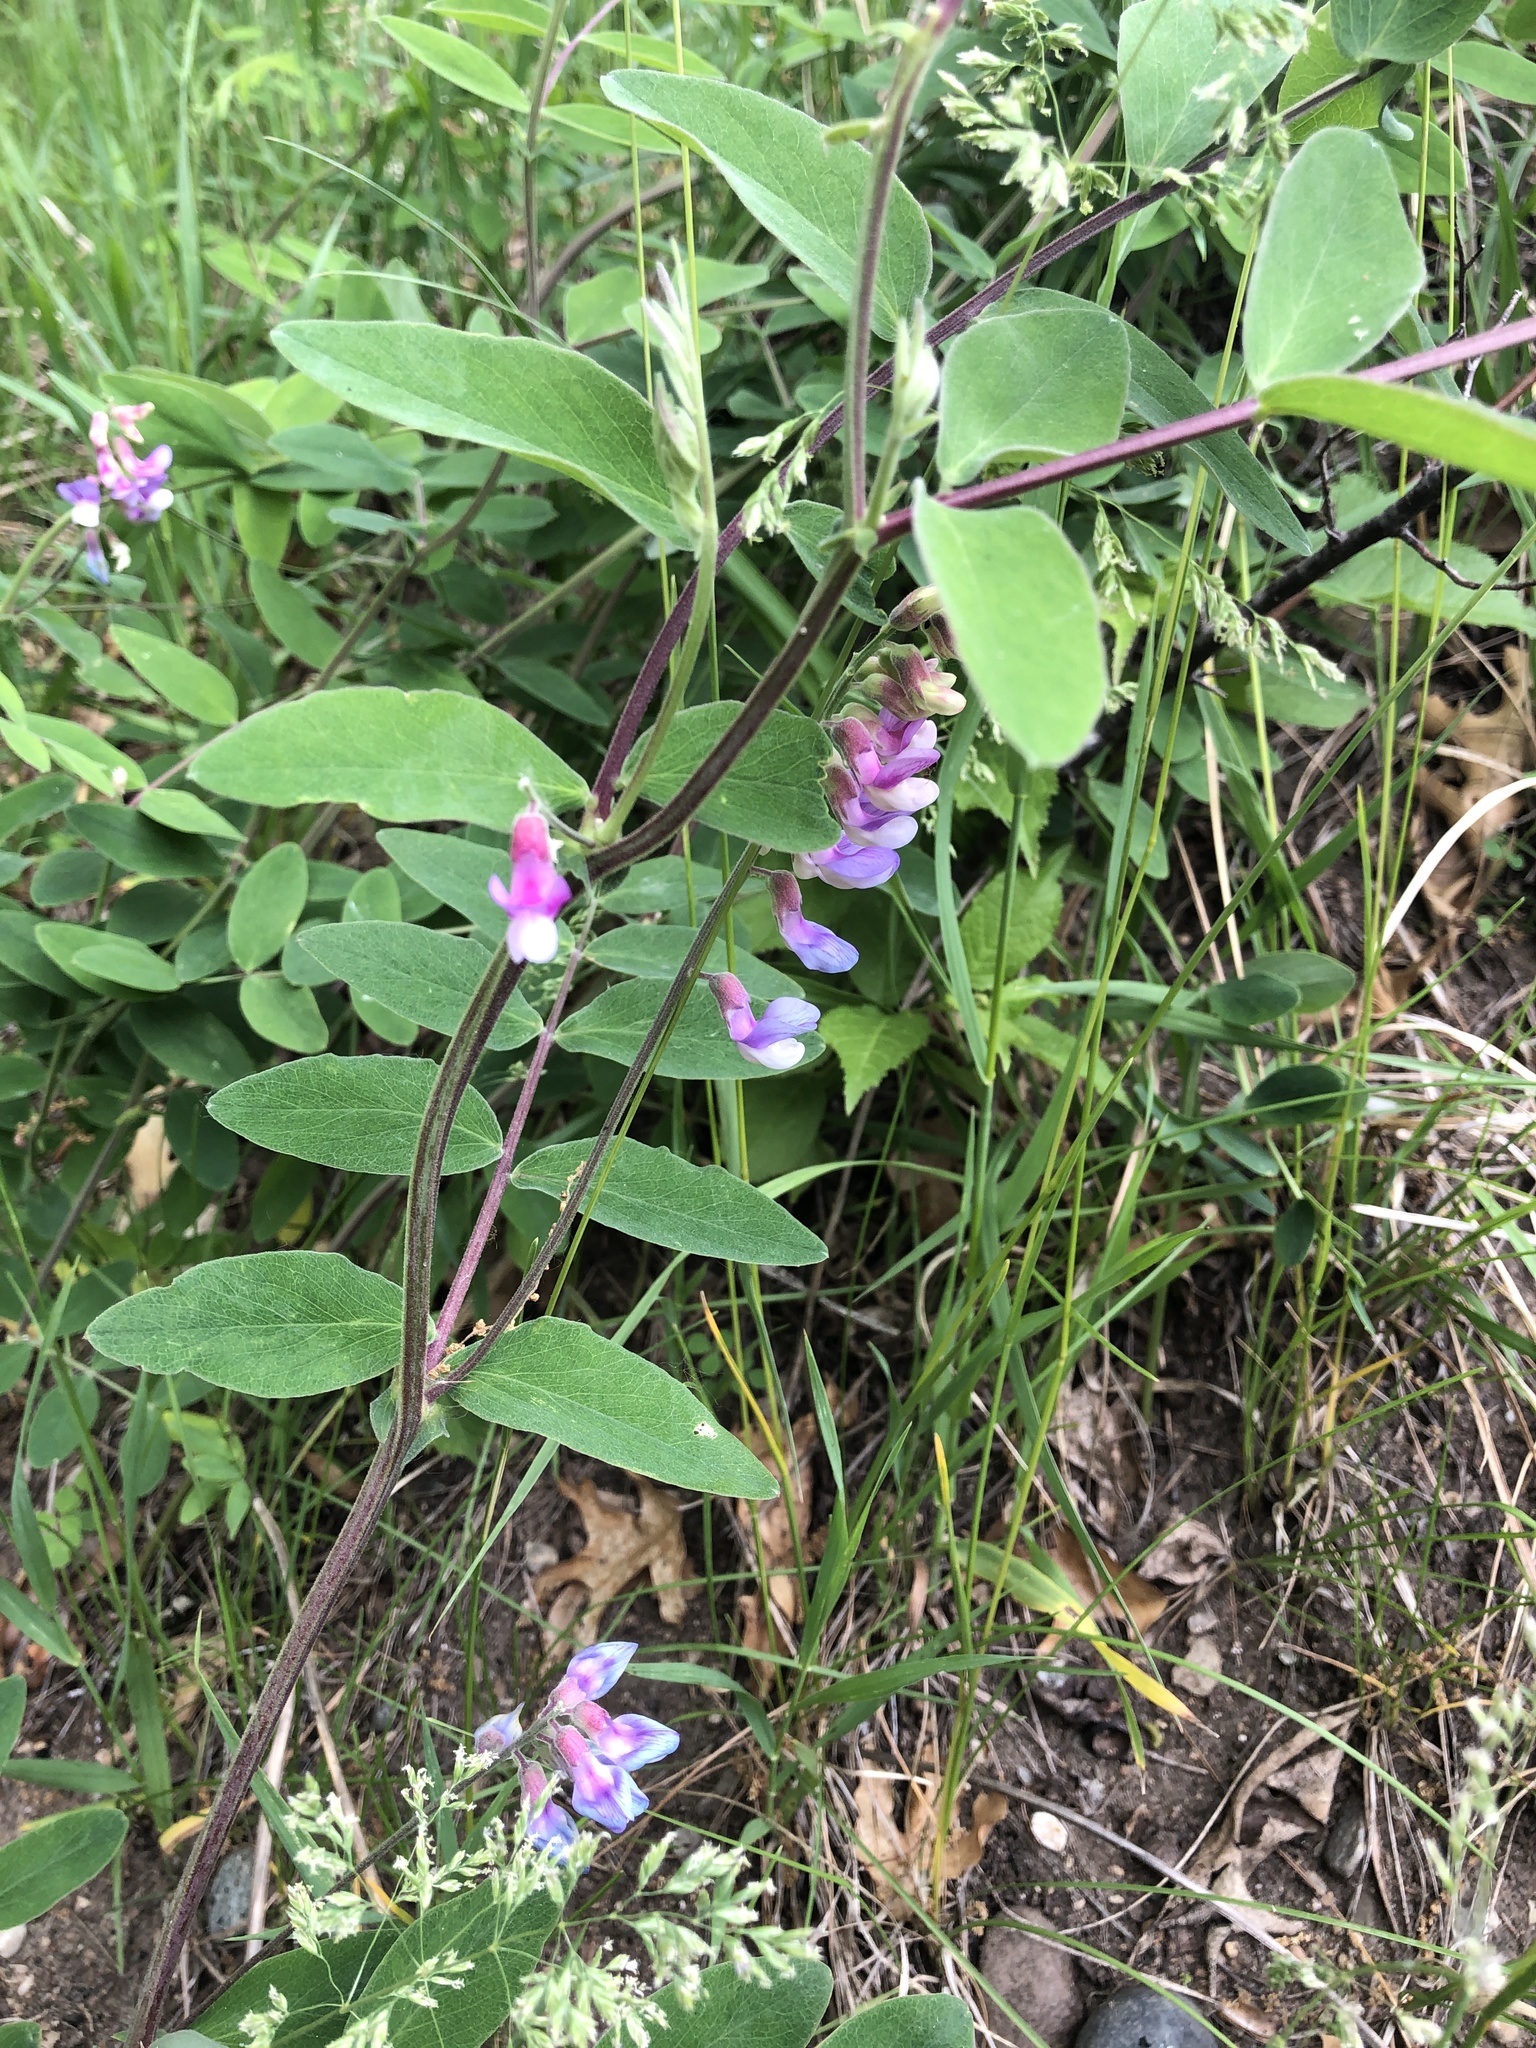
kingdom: Plantae
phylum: Tracheophyta
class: Magnoliopsida
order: Fabales
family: Fabaceae
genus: Lathyrus
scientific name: Lathyrus venosus
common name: Forest-pea
